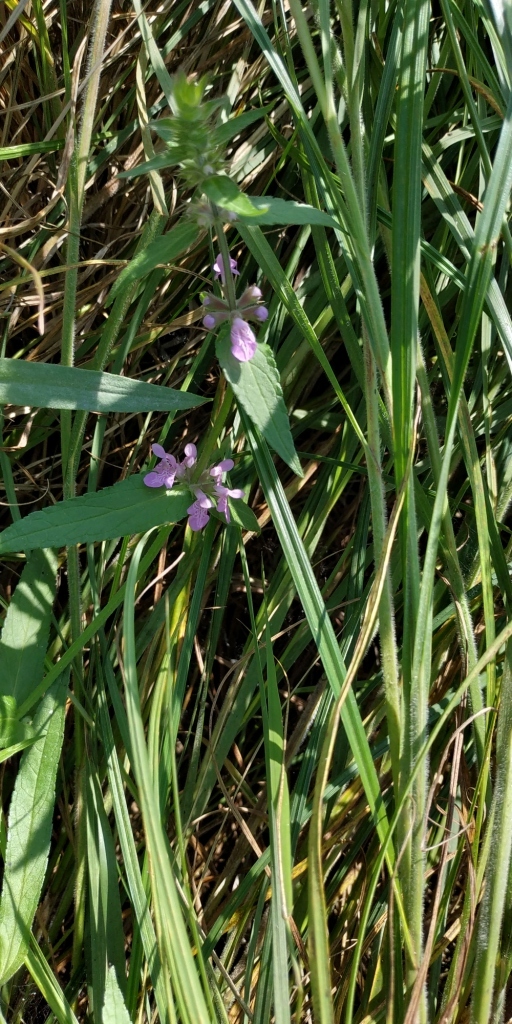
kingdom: Plantae
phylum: Tracheophyta
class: Magnoliopsida
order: Lamiales
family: Lamiaceae
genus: Stachys
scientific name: Stachys palustris
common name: Marsh woundwort
